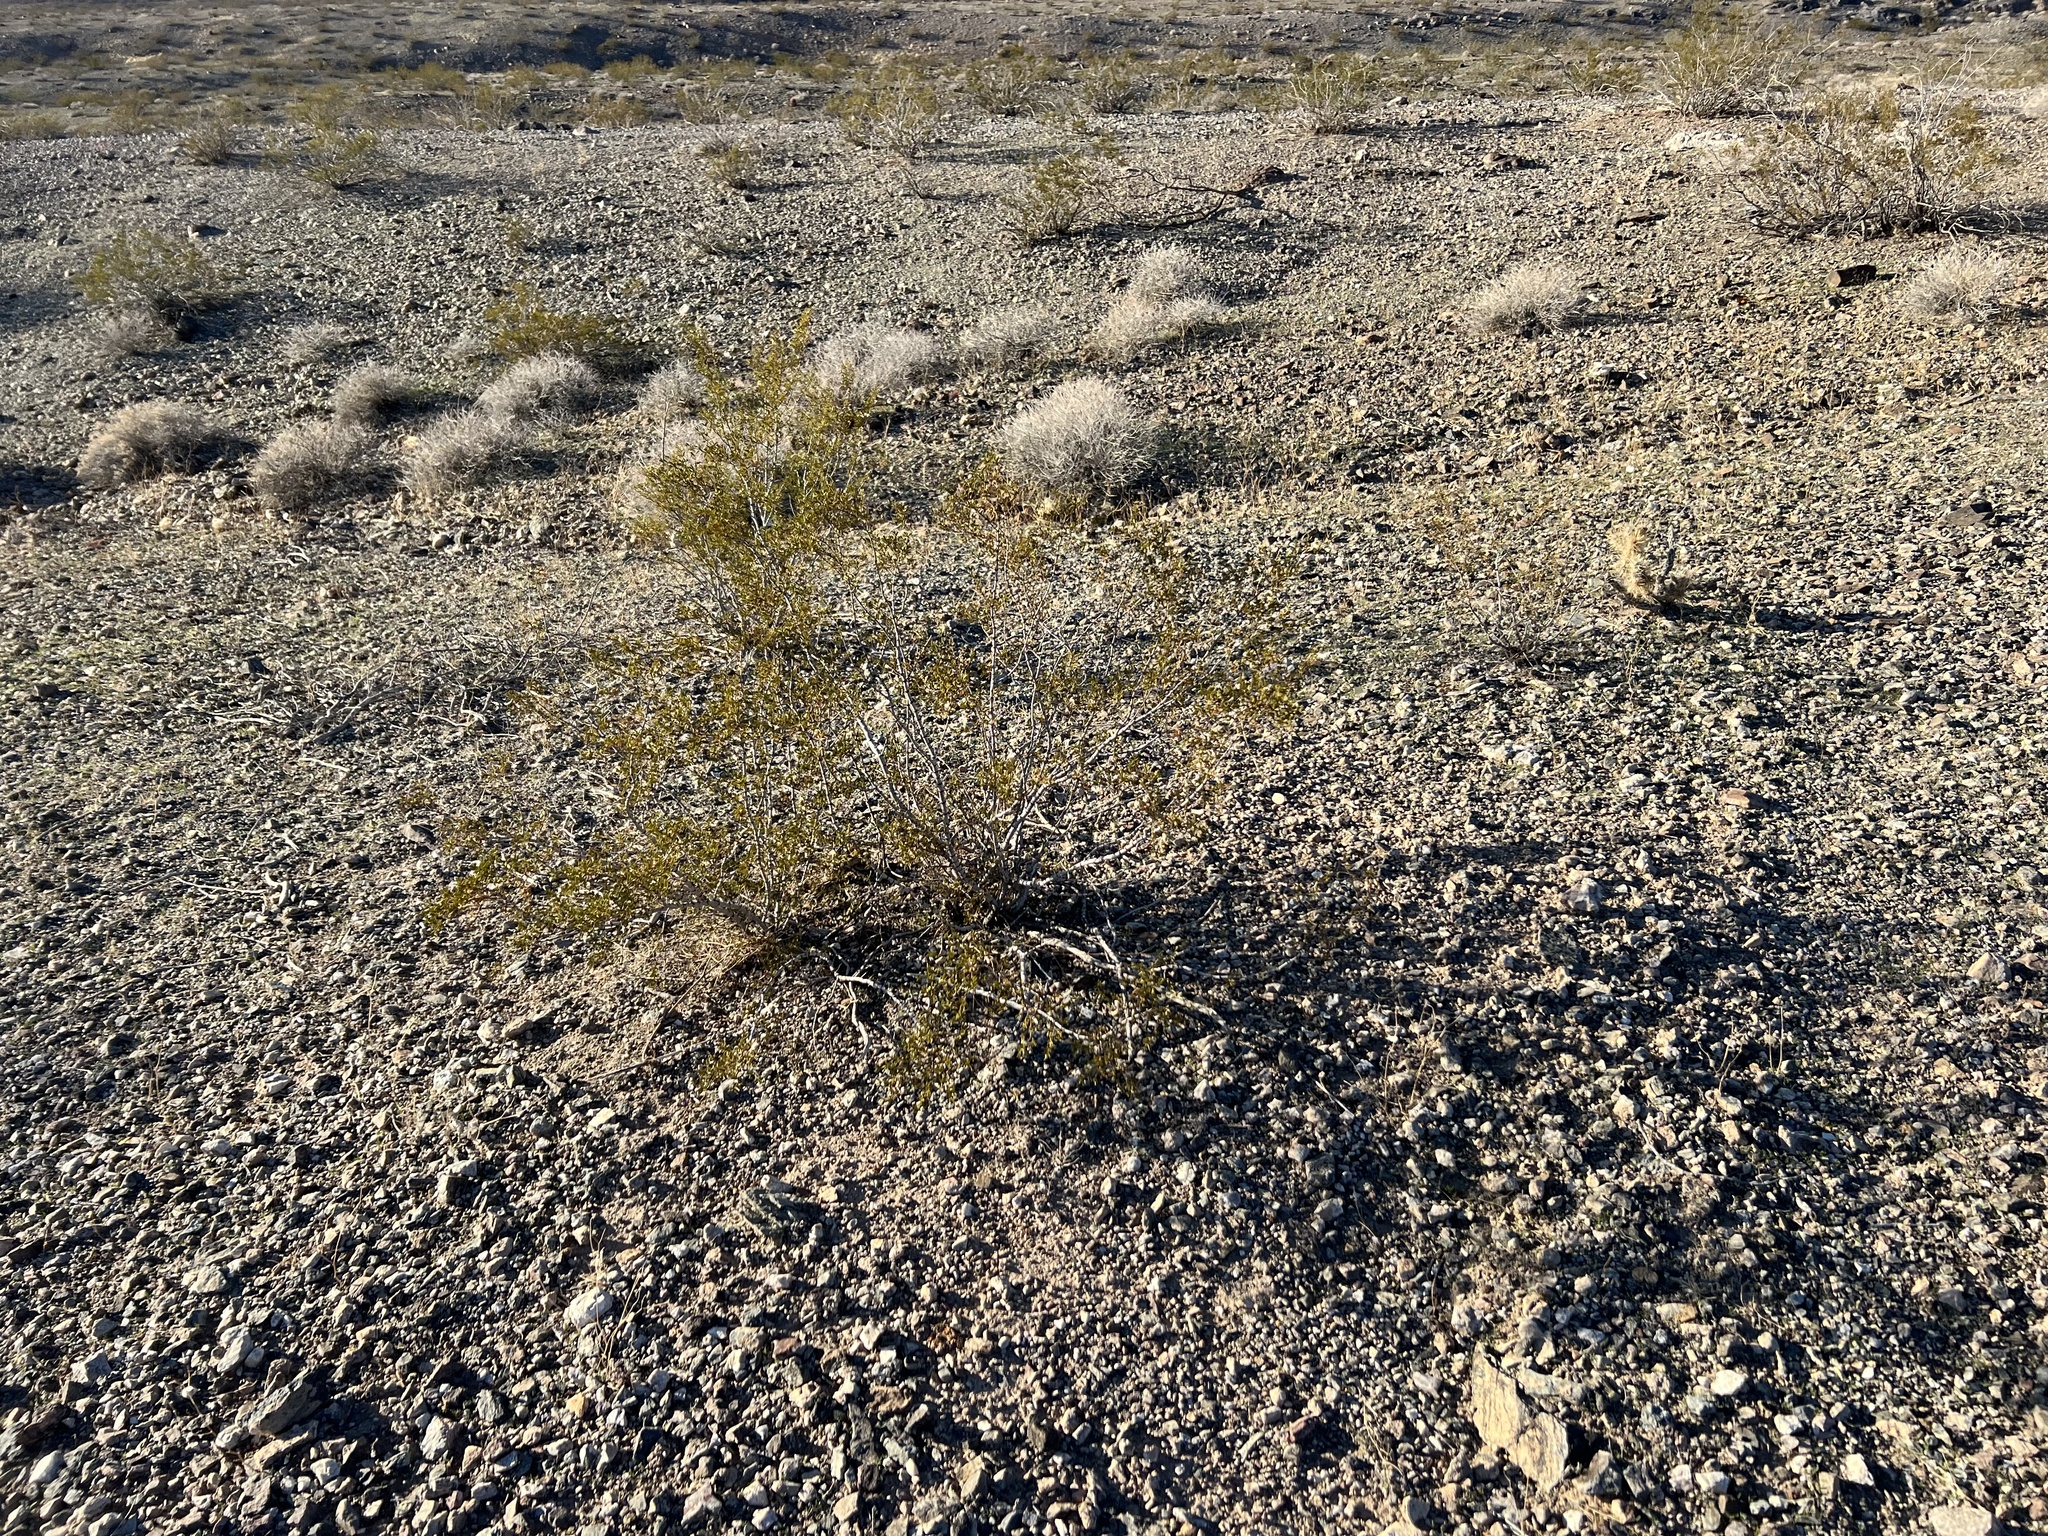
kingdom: Plantae
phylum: Tracheophyta
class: Magnoliopsida
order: Zygophyllales
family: Zygophyllaceae
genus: Larrea
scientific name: Larrea tridentata
